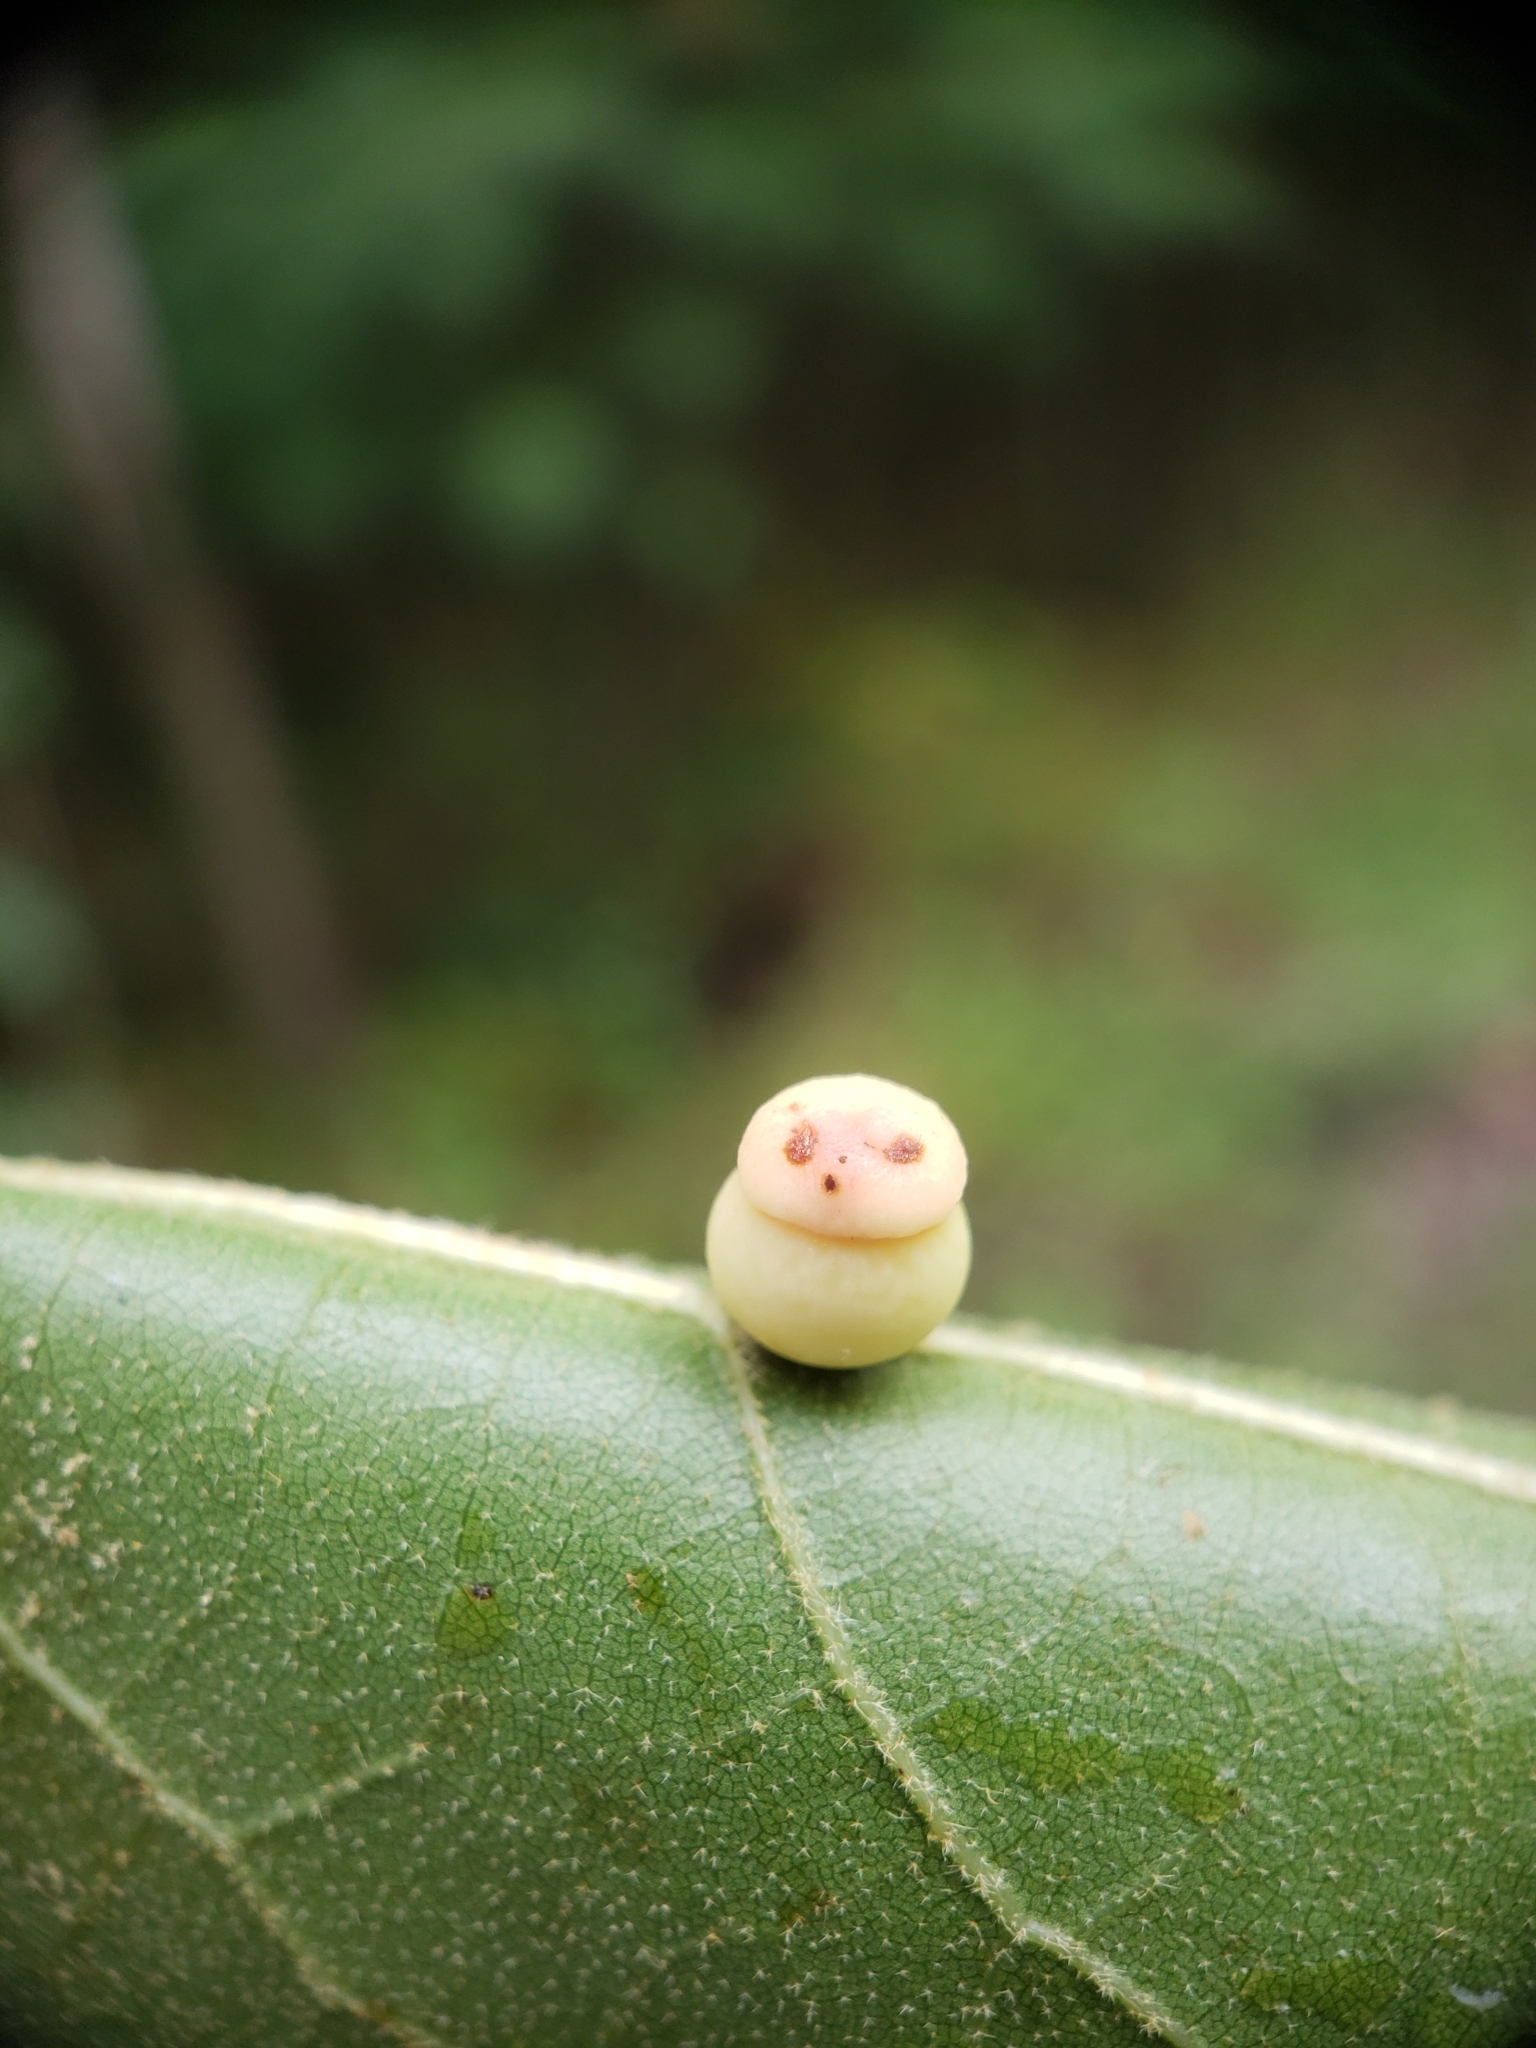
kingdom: Animalia
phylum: Arthropoda
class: Insecta
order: Hymenoptera
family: Cynipidae
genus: Kokkocynips
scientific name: Kokkocynips rileyi
